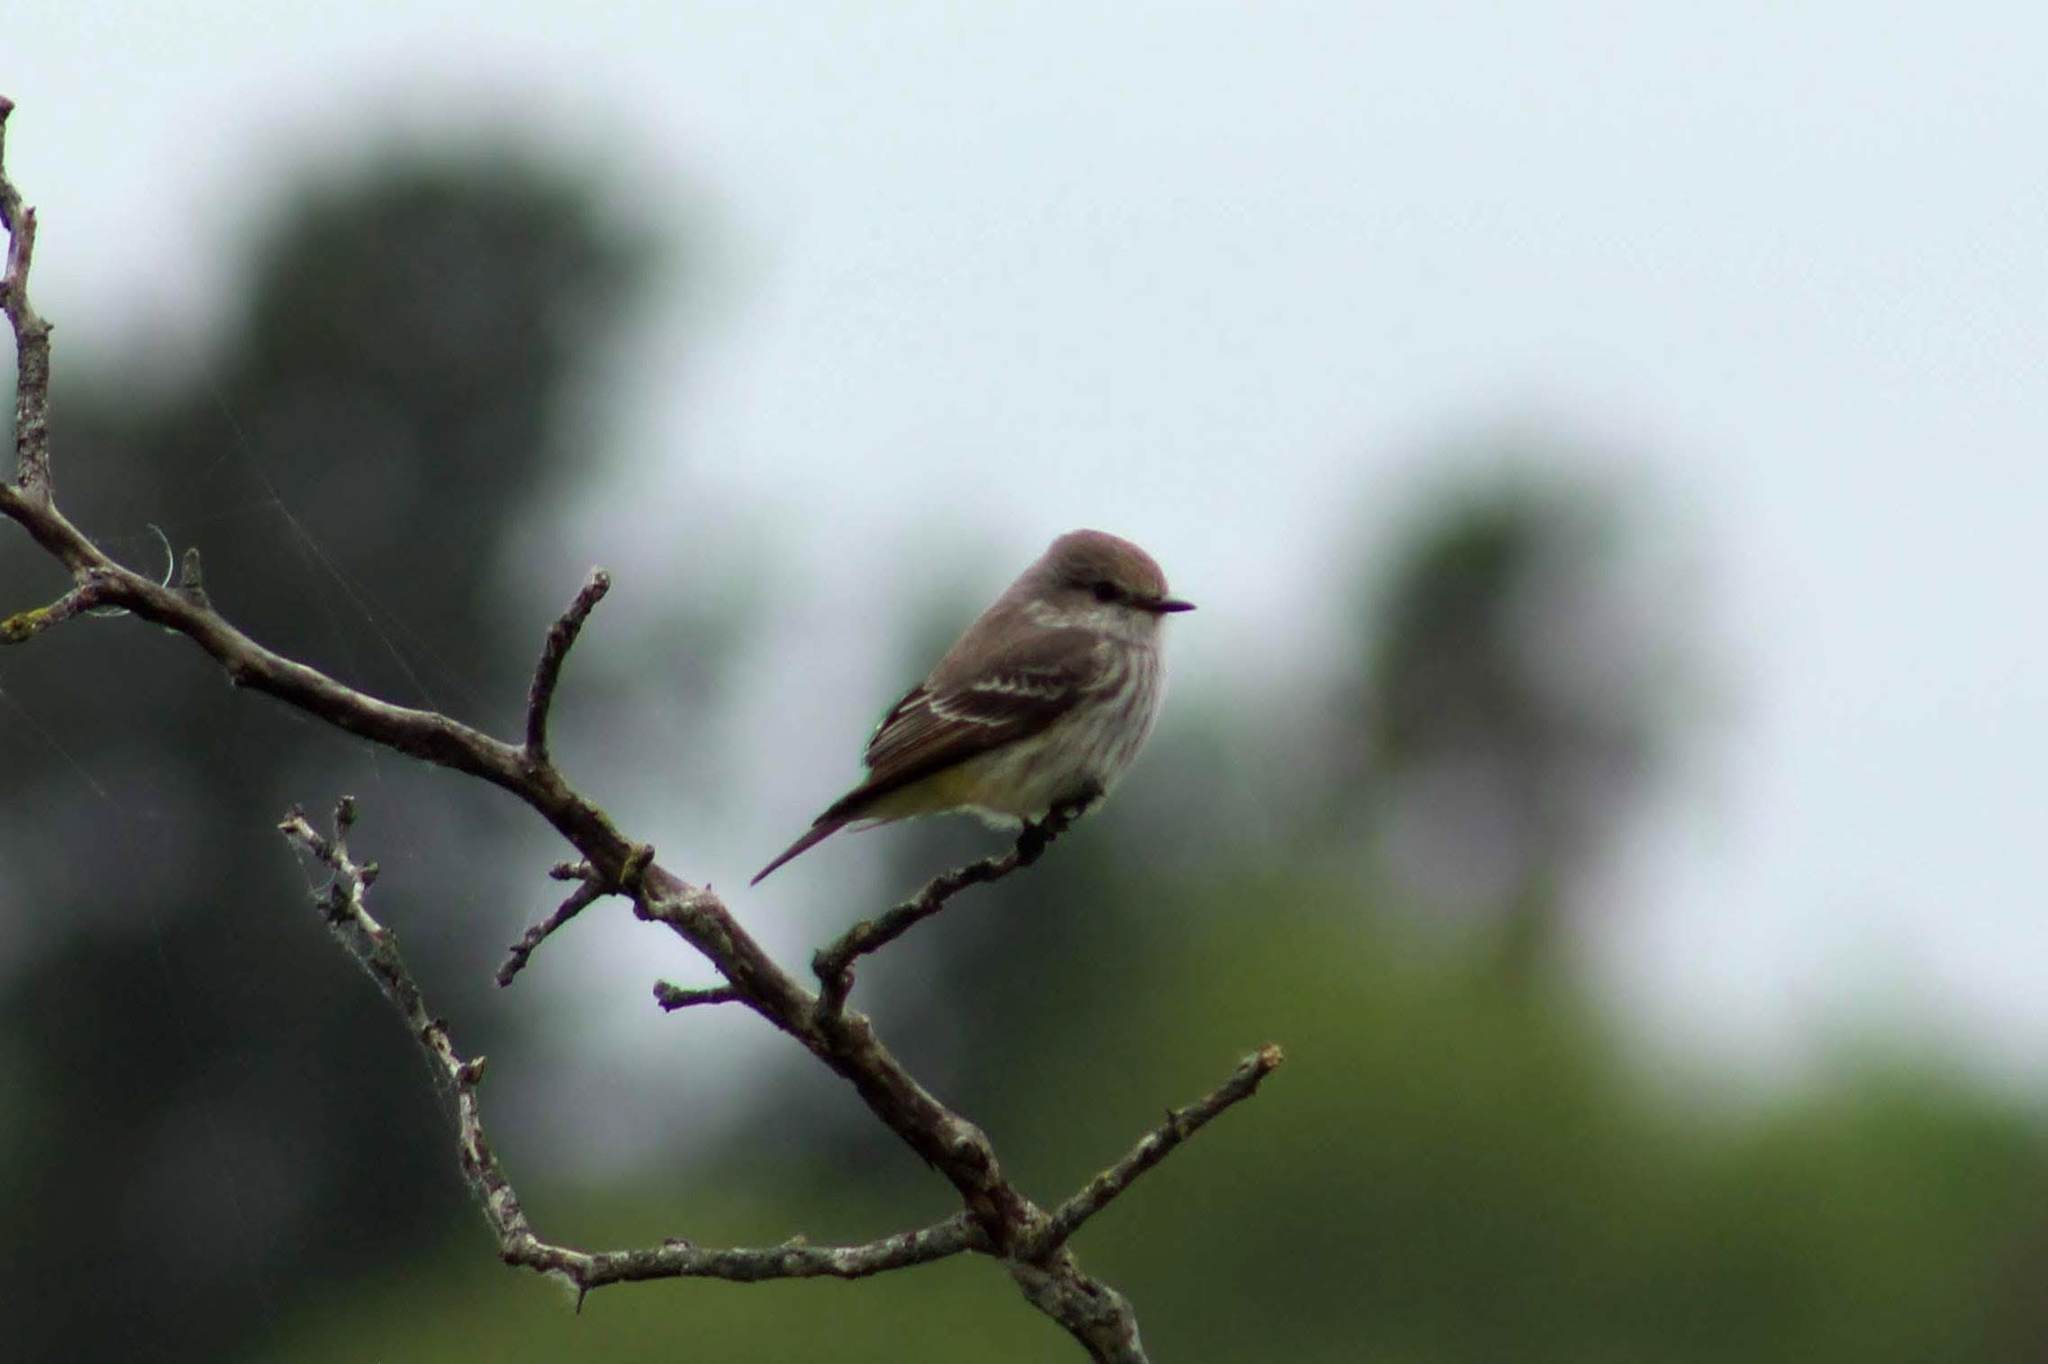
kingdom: Animalia
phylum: Chordata
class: Aves
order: Passeriformes
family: Tyrannidae
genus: Pyrocephalus
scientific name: Pyrocephalus rubinus
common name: Vermilion flycatcher
